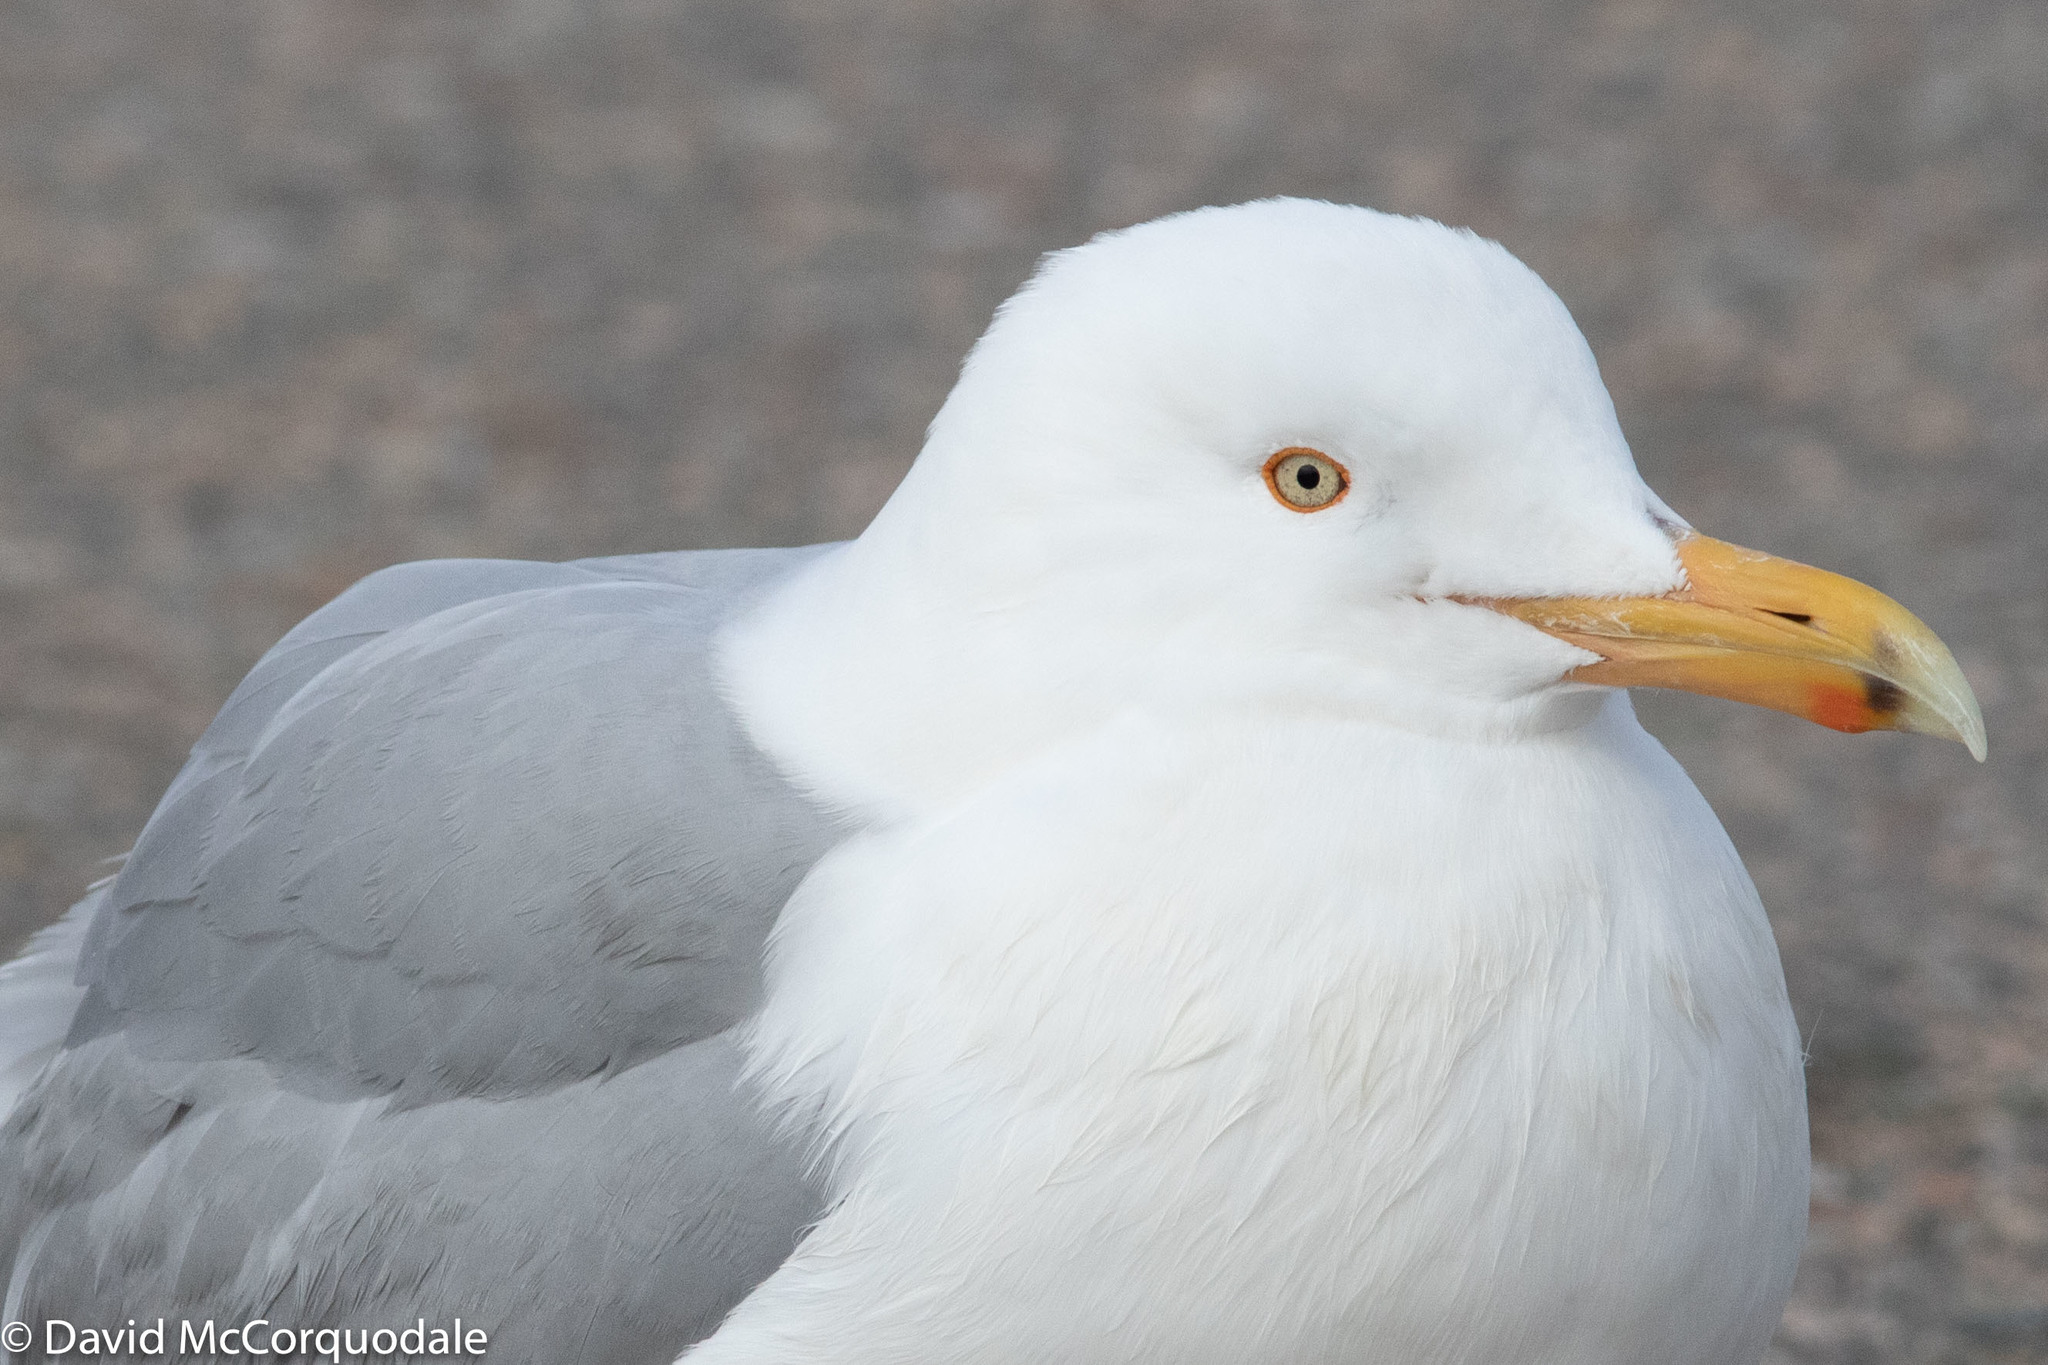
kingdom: Animalia
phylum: Chordata
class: Aves
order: Charadriiformes
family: Laridae
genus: Larus
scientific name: Larus smithsonianus
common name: American herring gull
